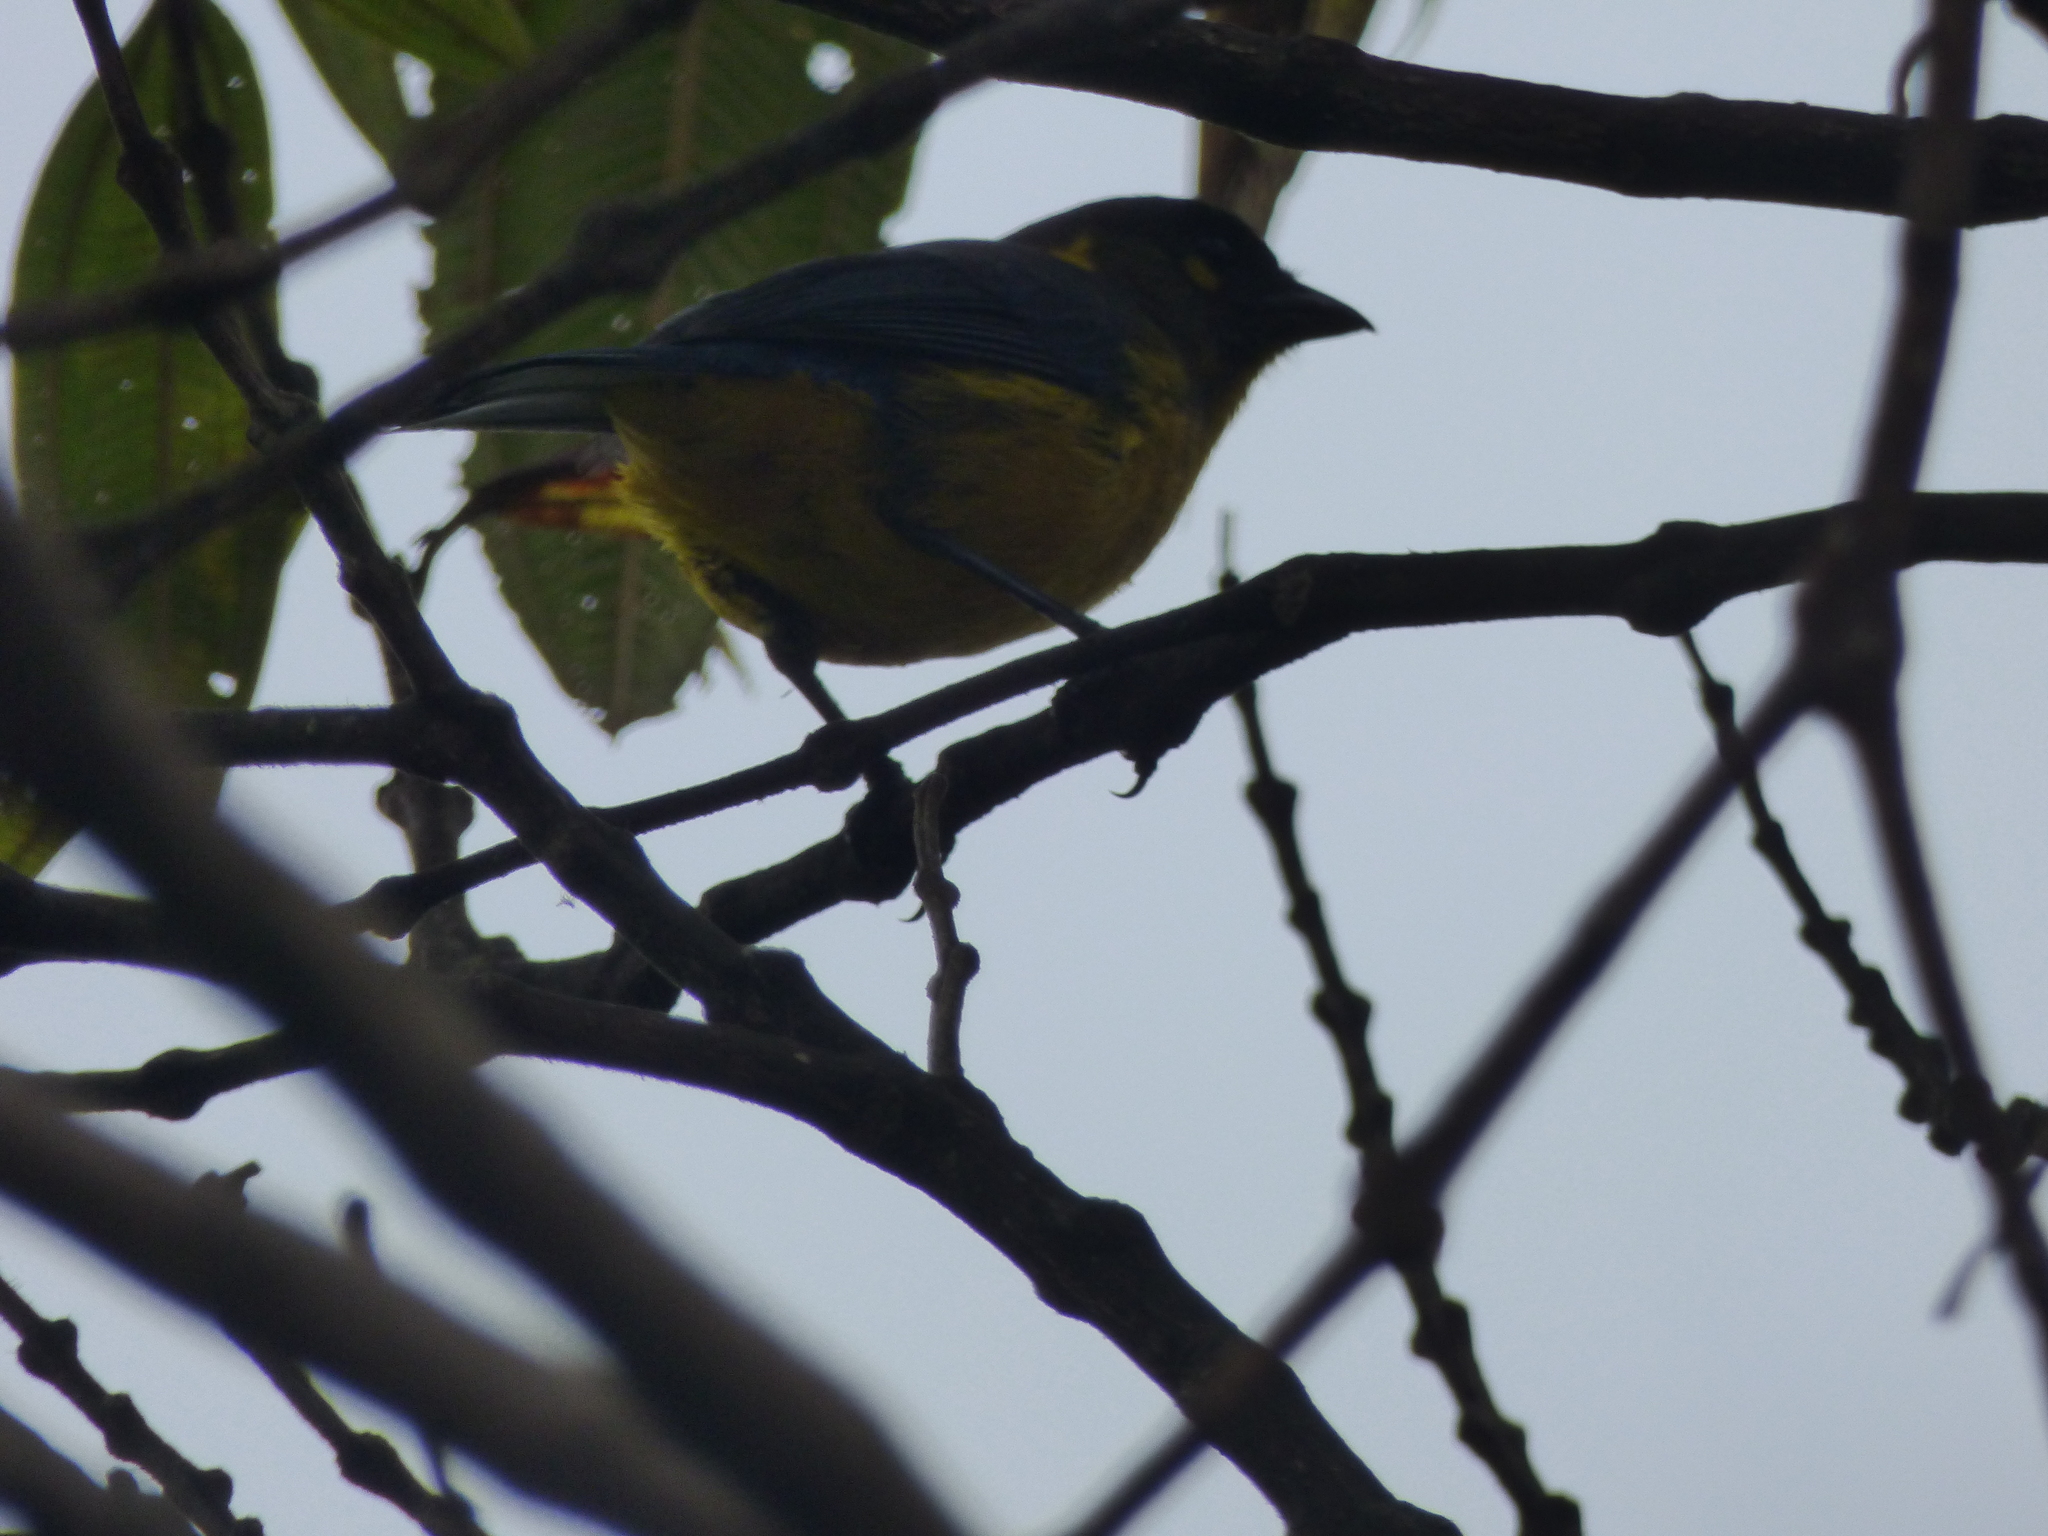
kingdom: Animalia
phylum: Chordata
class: Aves
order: Passeriformes
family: Thraupidae
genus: Anisognathus
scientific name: Anisognathus lacrymosus
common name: Lacrimose mountain-tanager
